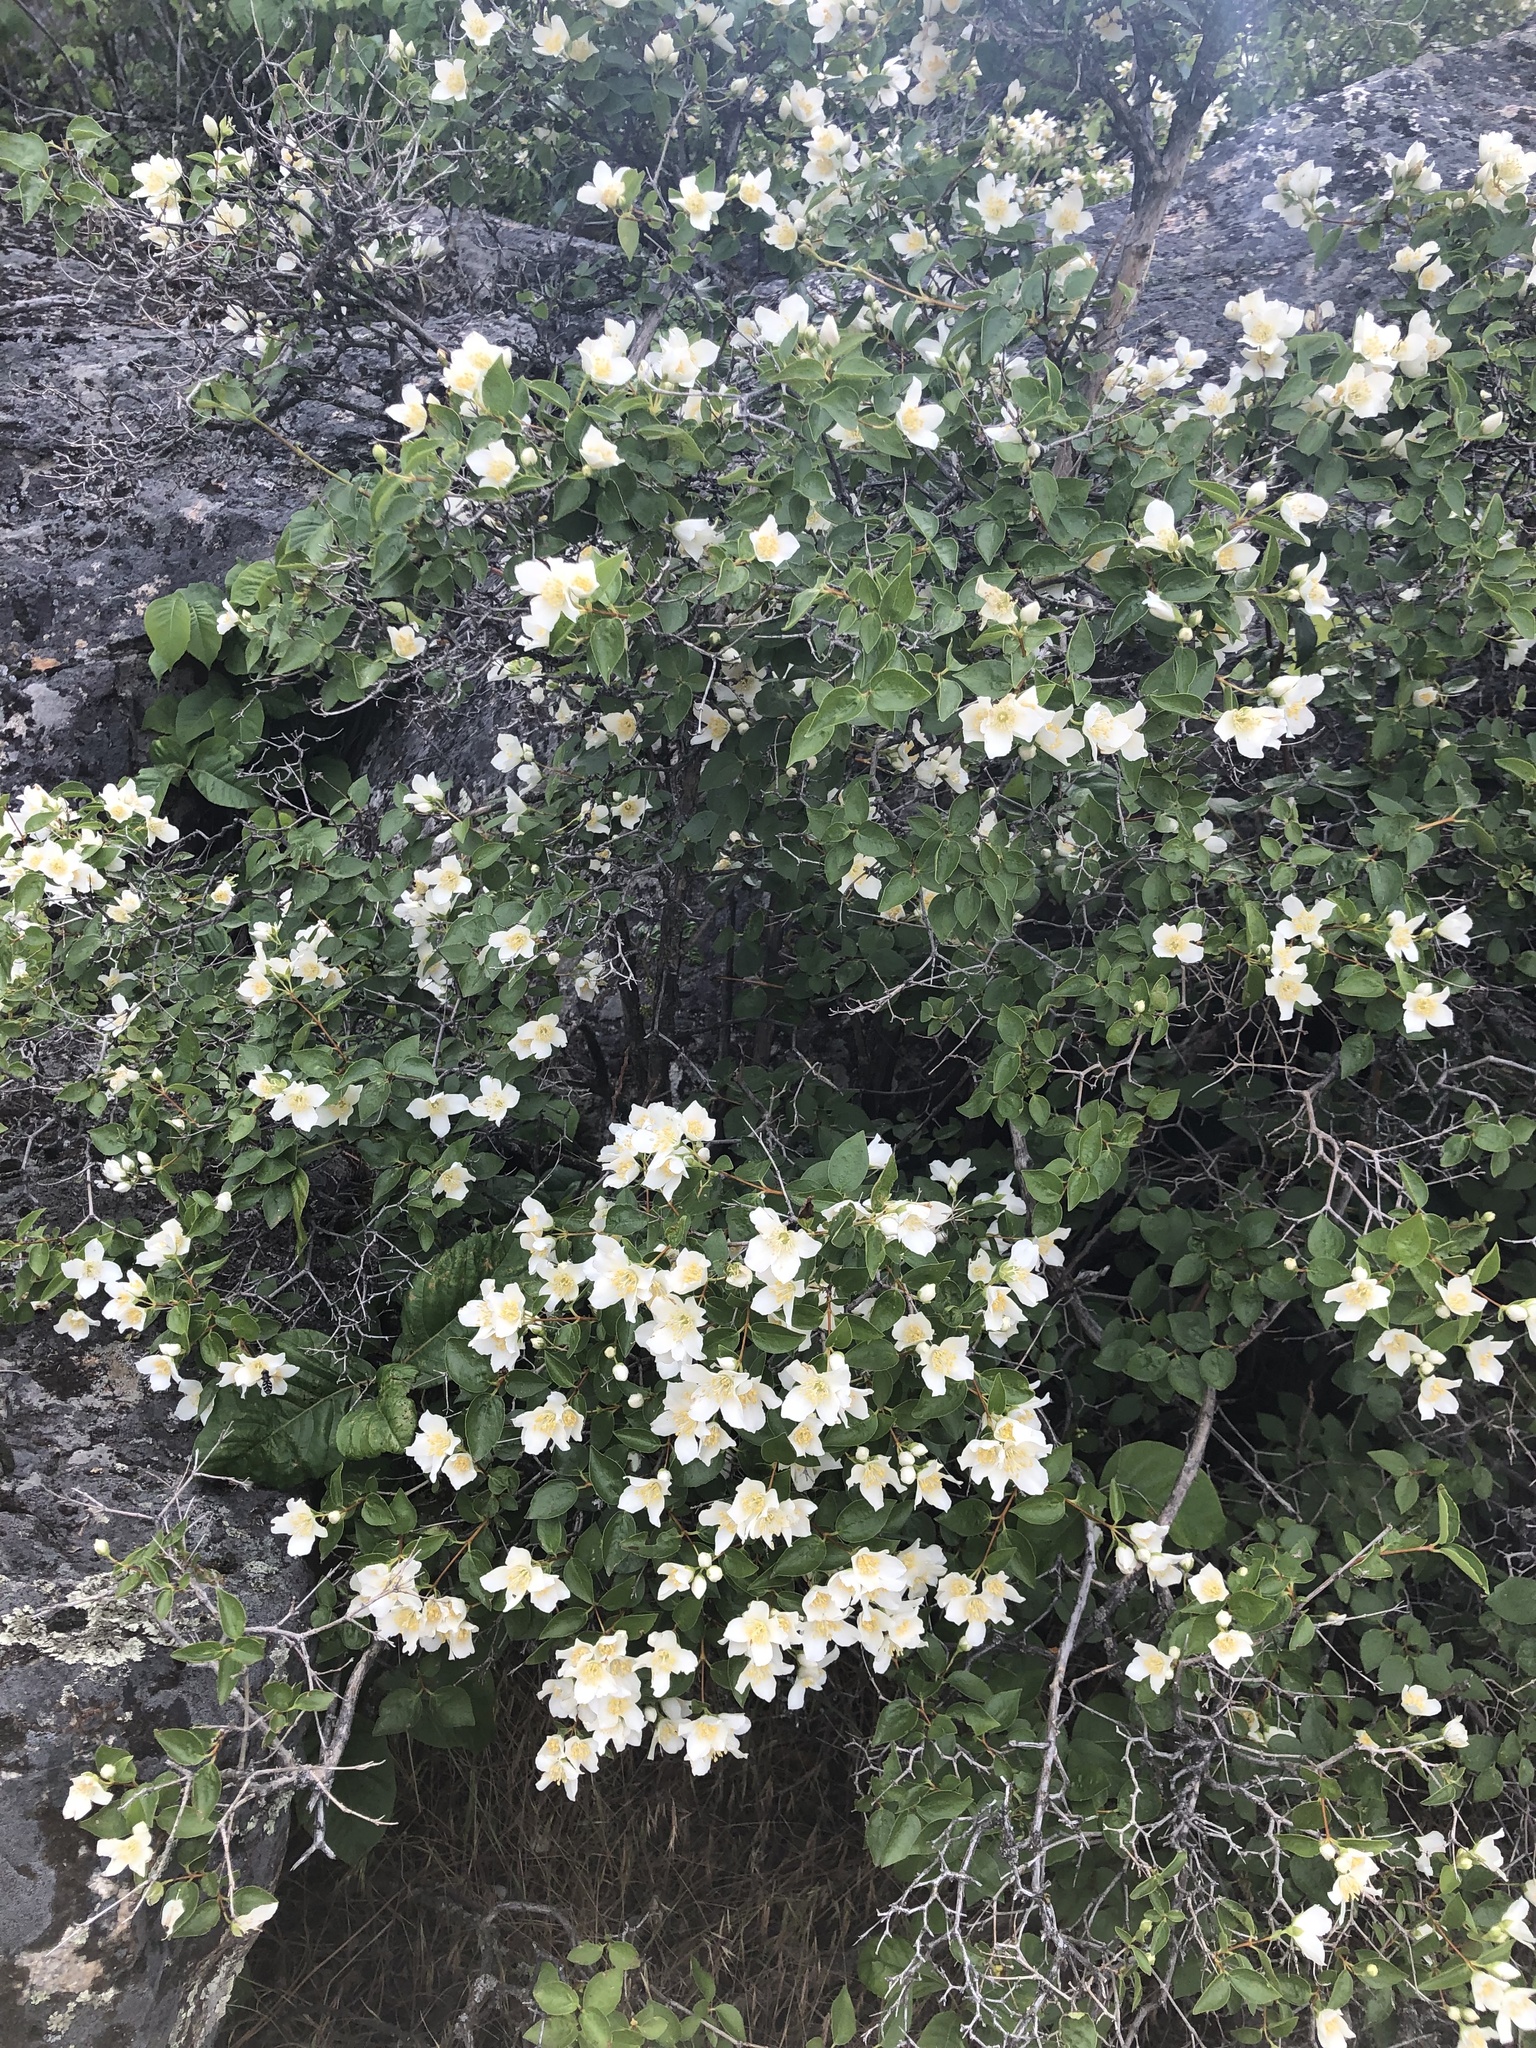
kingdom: Plantae
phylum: Tracheophyta
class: Magnoliopsida
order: Cornales
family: Hydrangeaceae
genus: Philadelphus
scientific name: Philadelphus lewisii
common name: Lewis's mock orange
